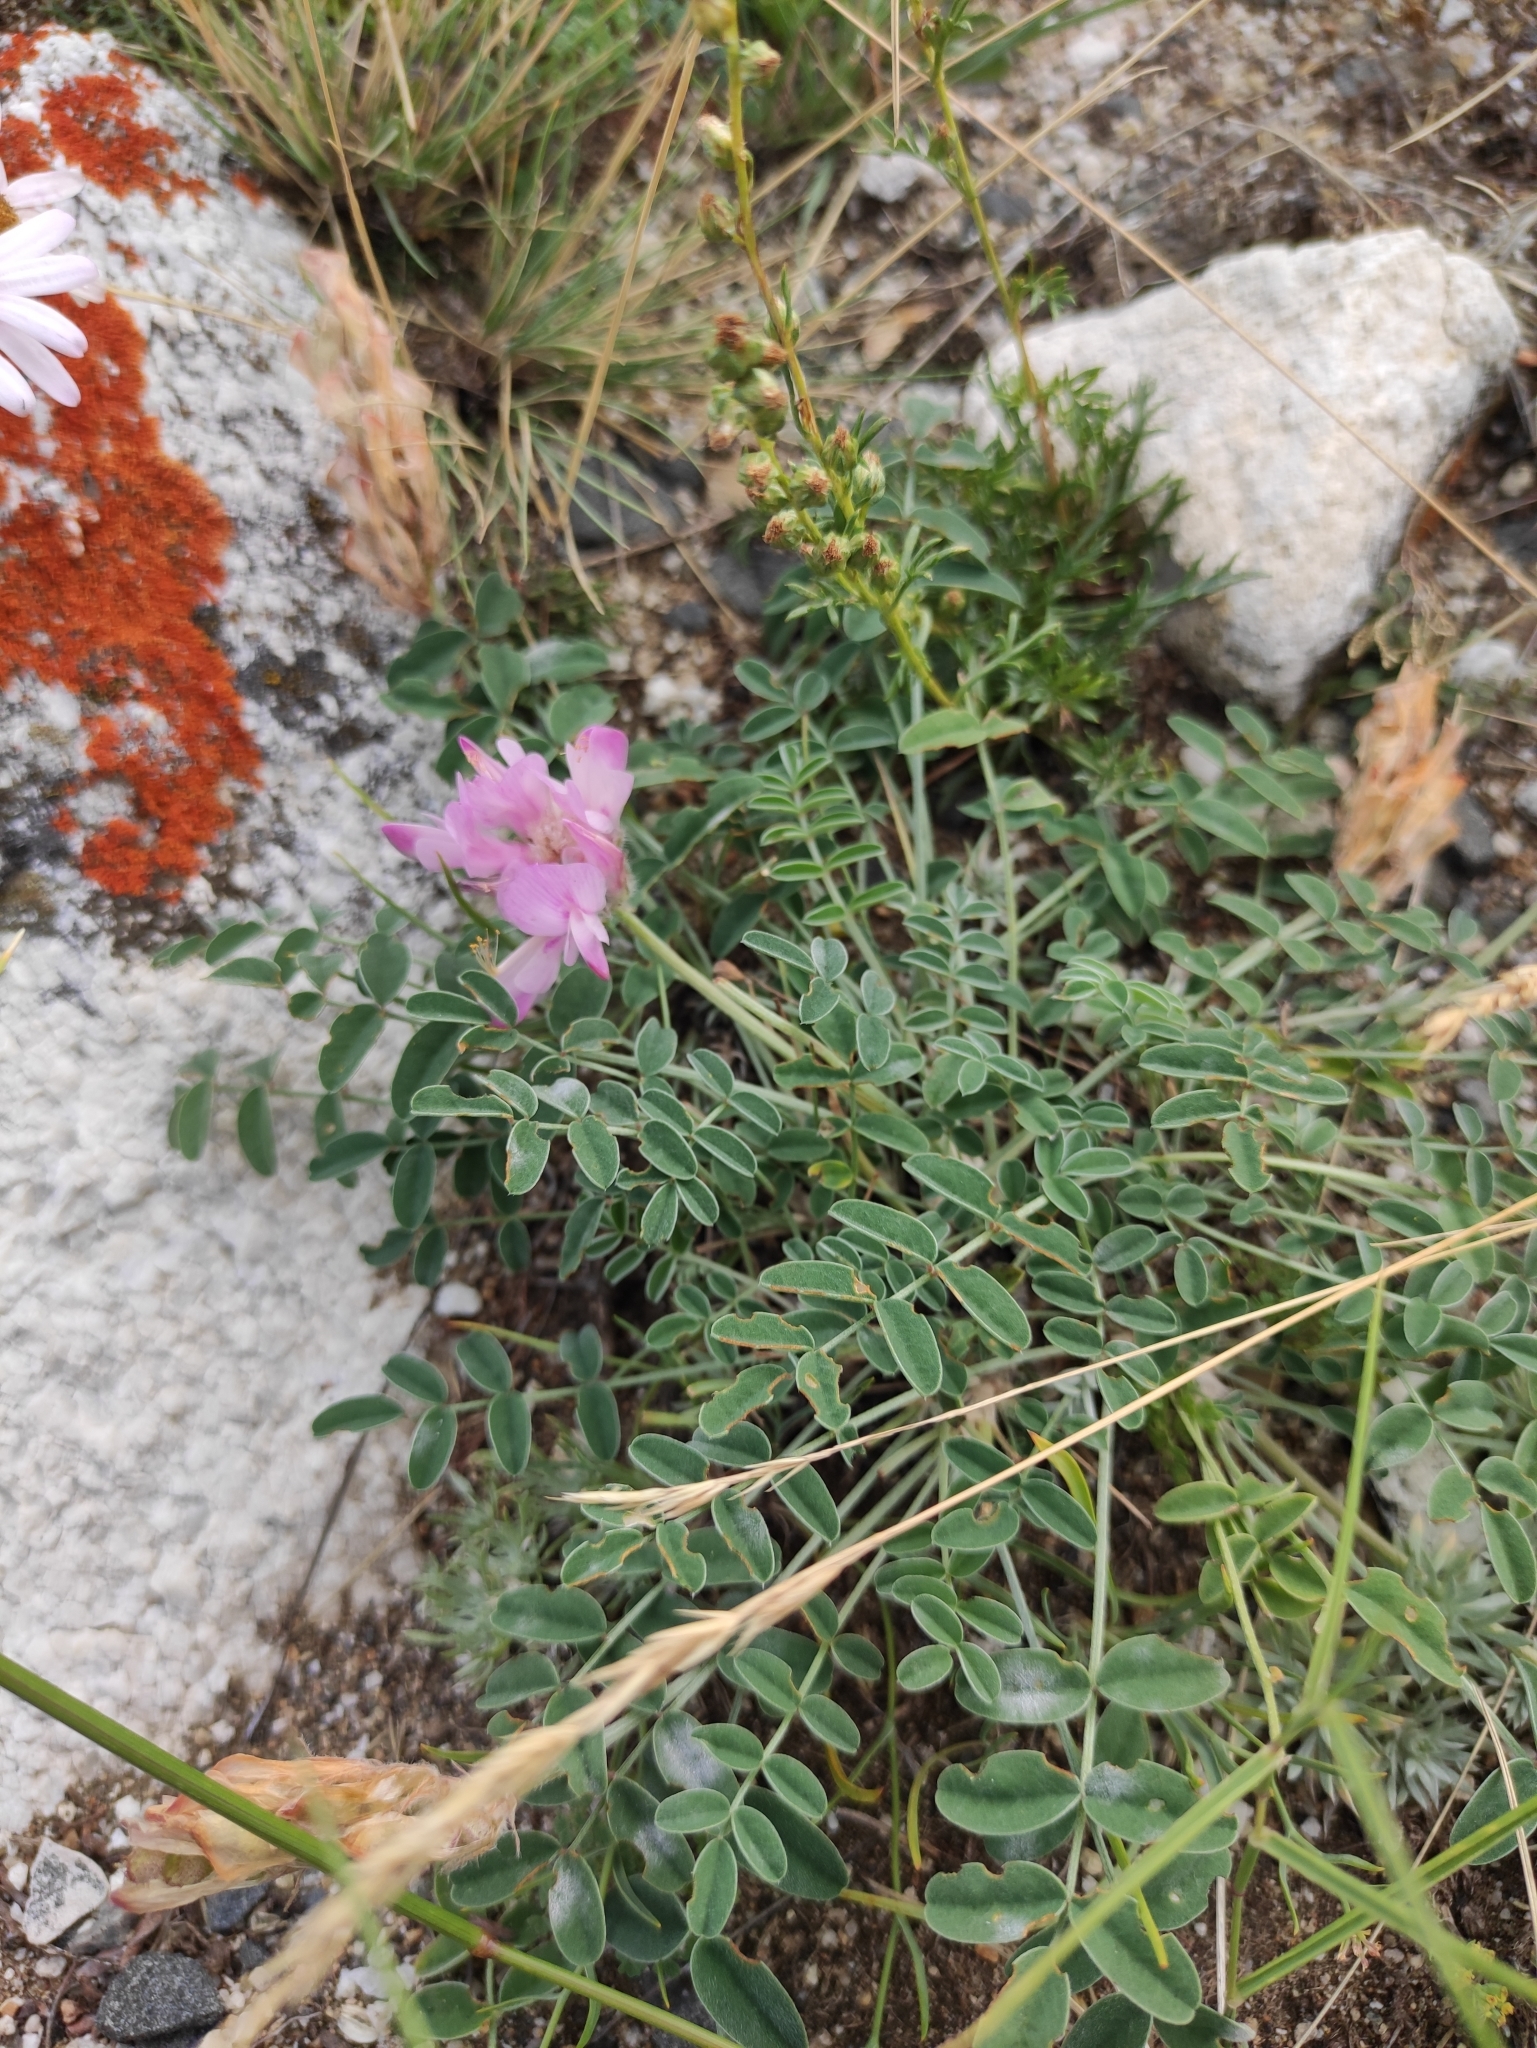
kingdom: Plantae
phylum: Tracheophyta
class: Magnoliopsida
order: Fabales
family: Fabaceae
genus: Hedysarum
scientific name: Hedysarum setigerum
